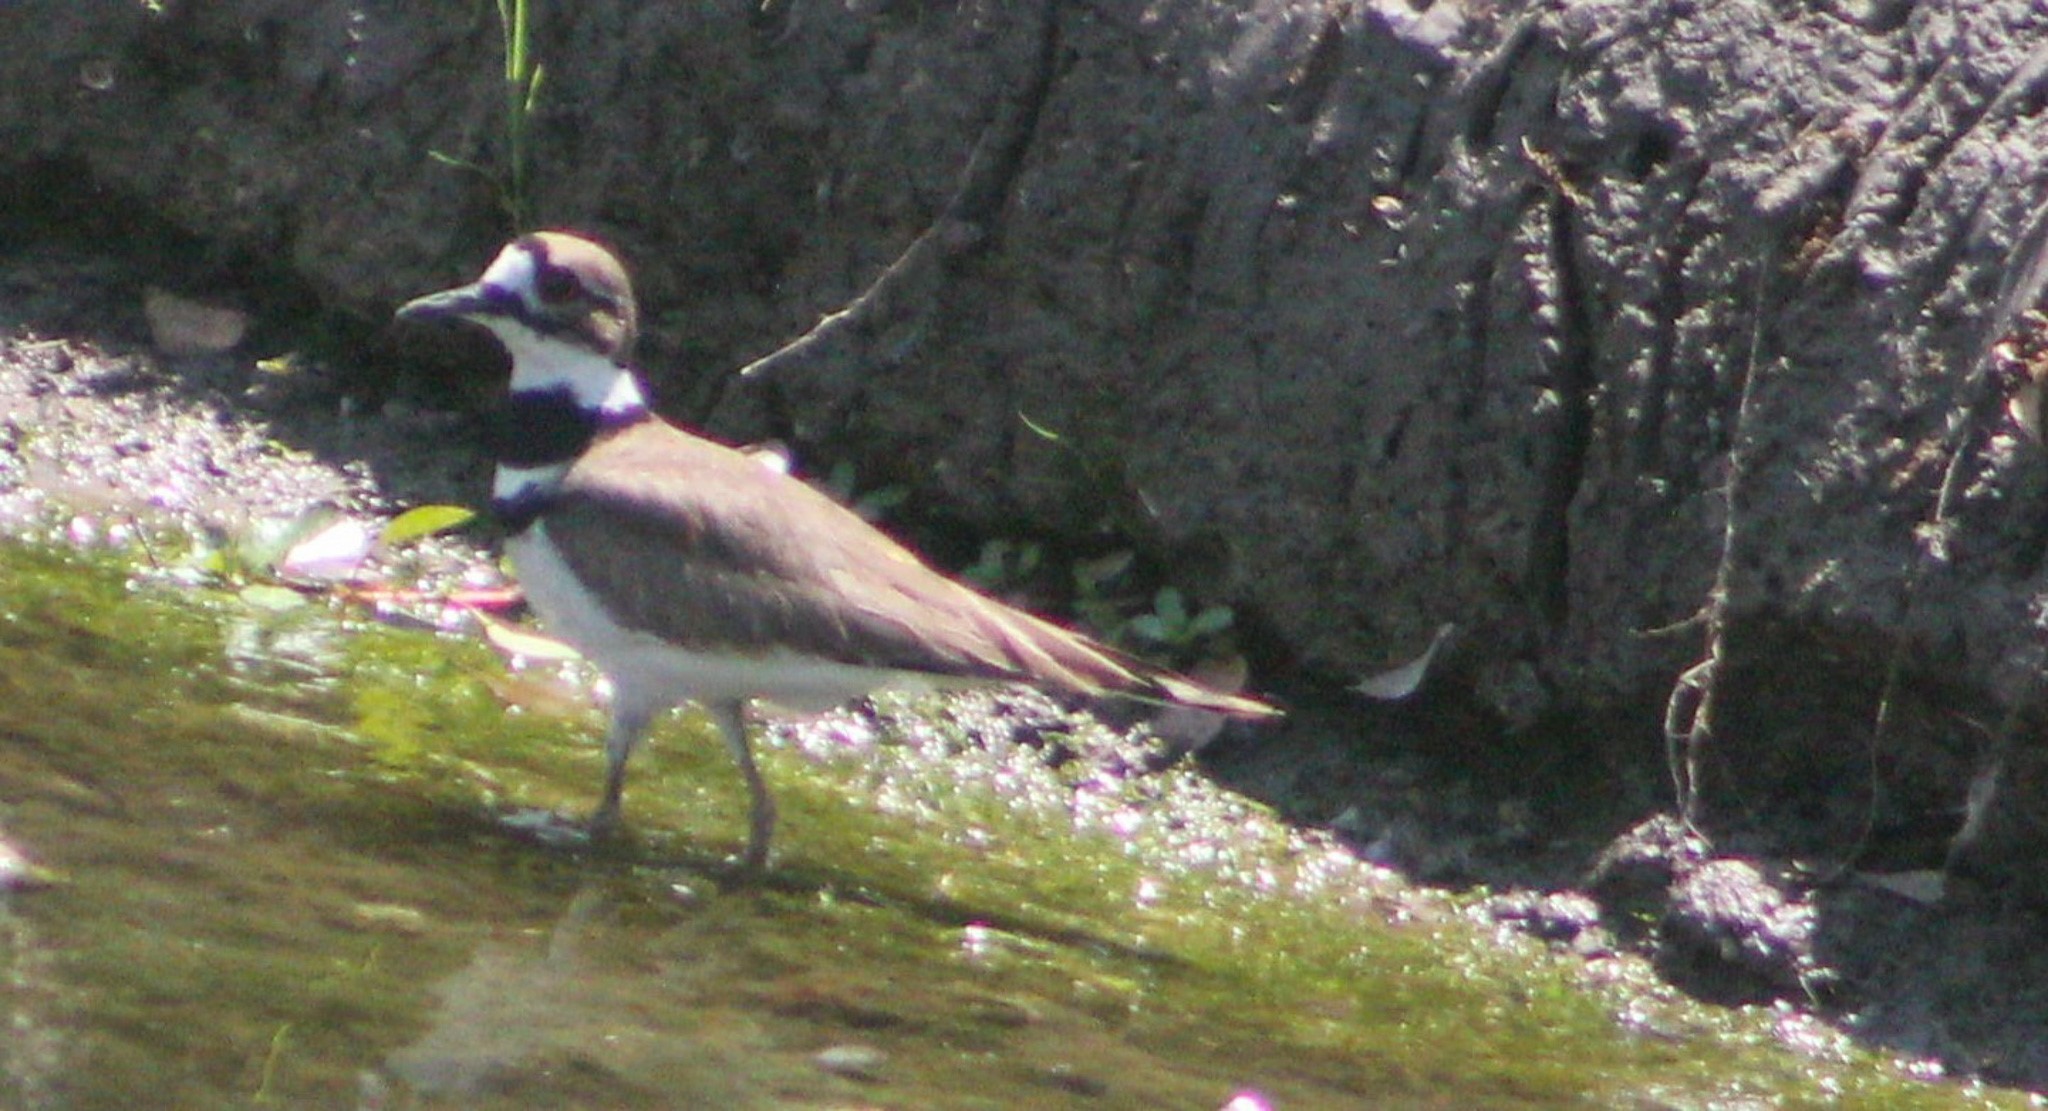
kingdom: Animalia
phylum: Chordata
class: Aves
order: Charadriiformes
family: Charadriidae
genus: Charadrius
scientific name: Charadrius vociferus
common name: Killdeer
